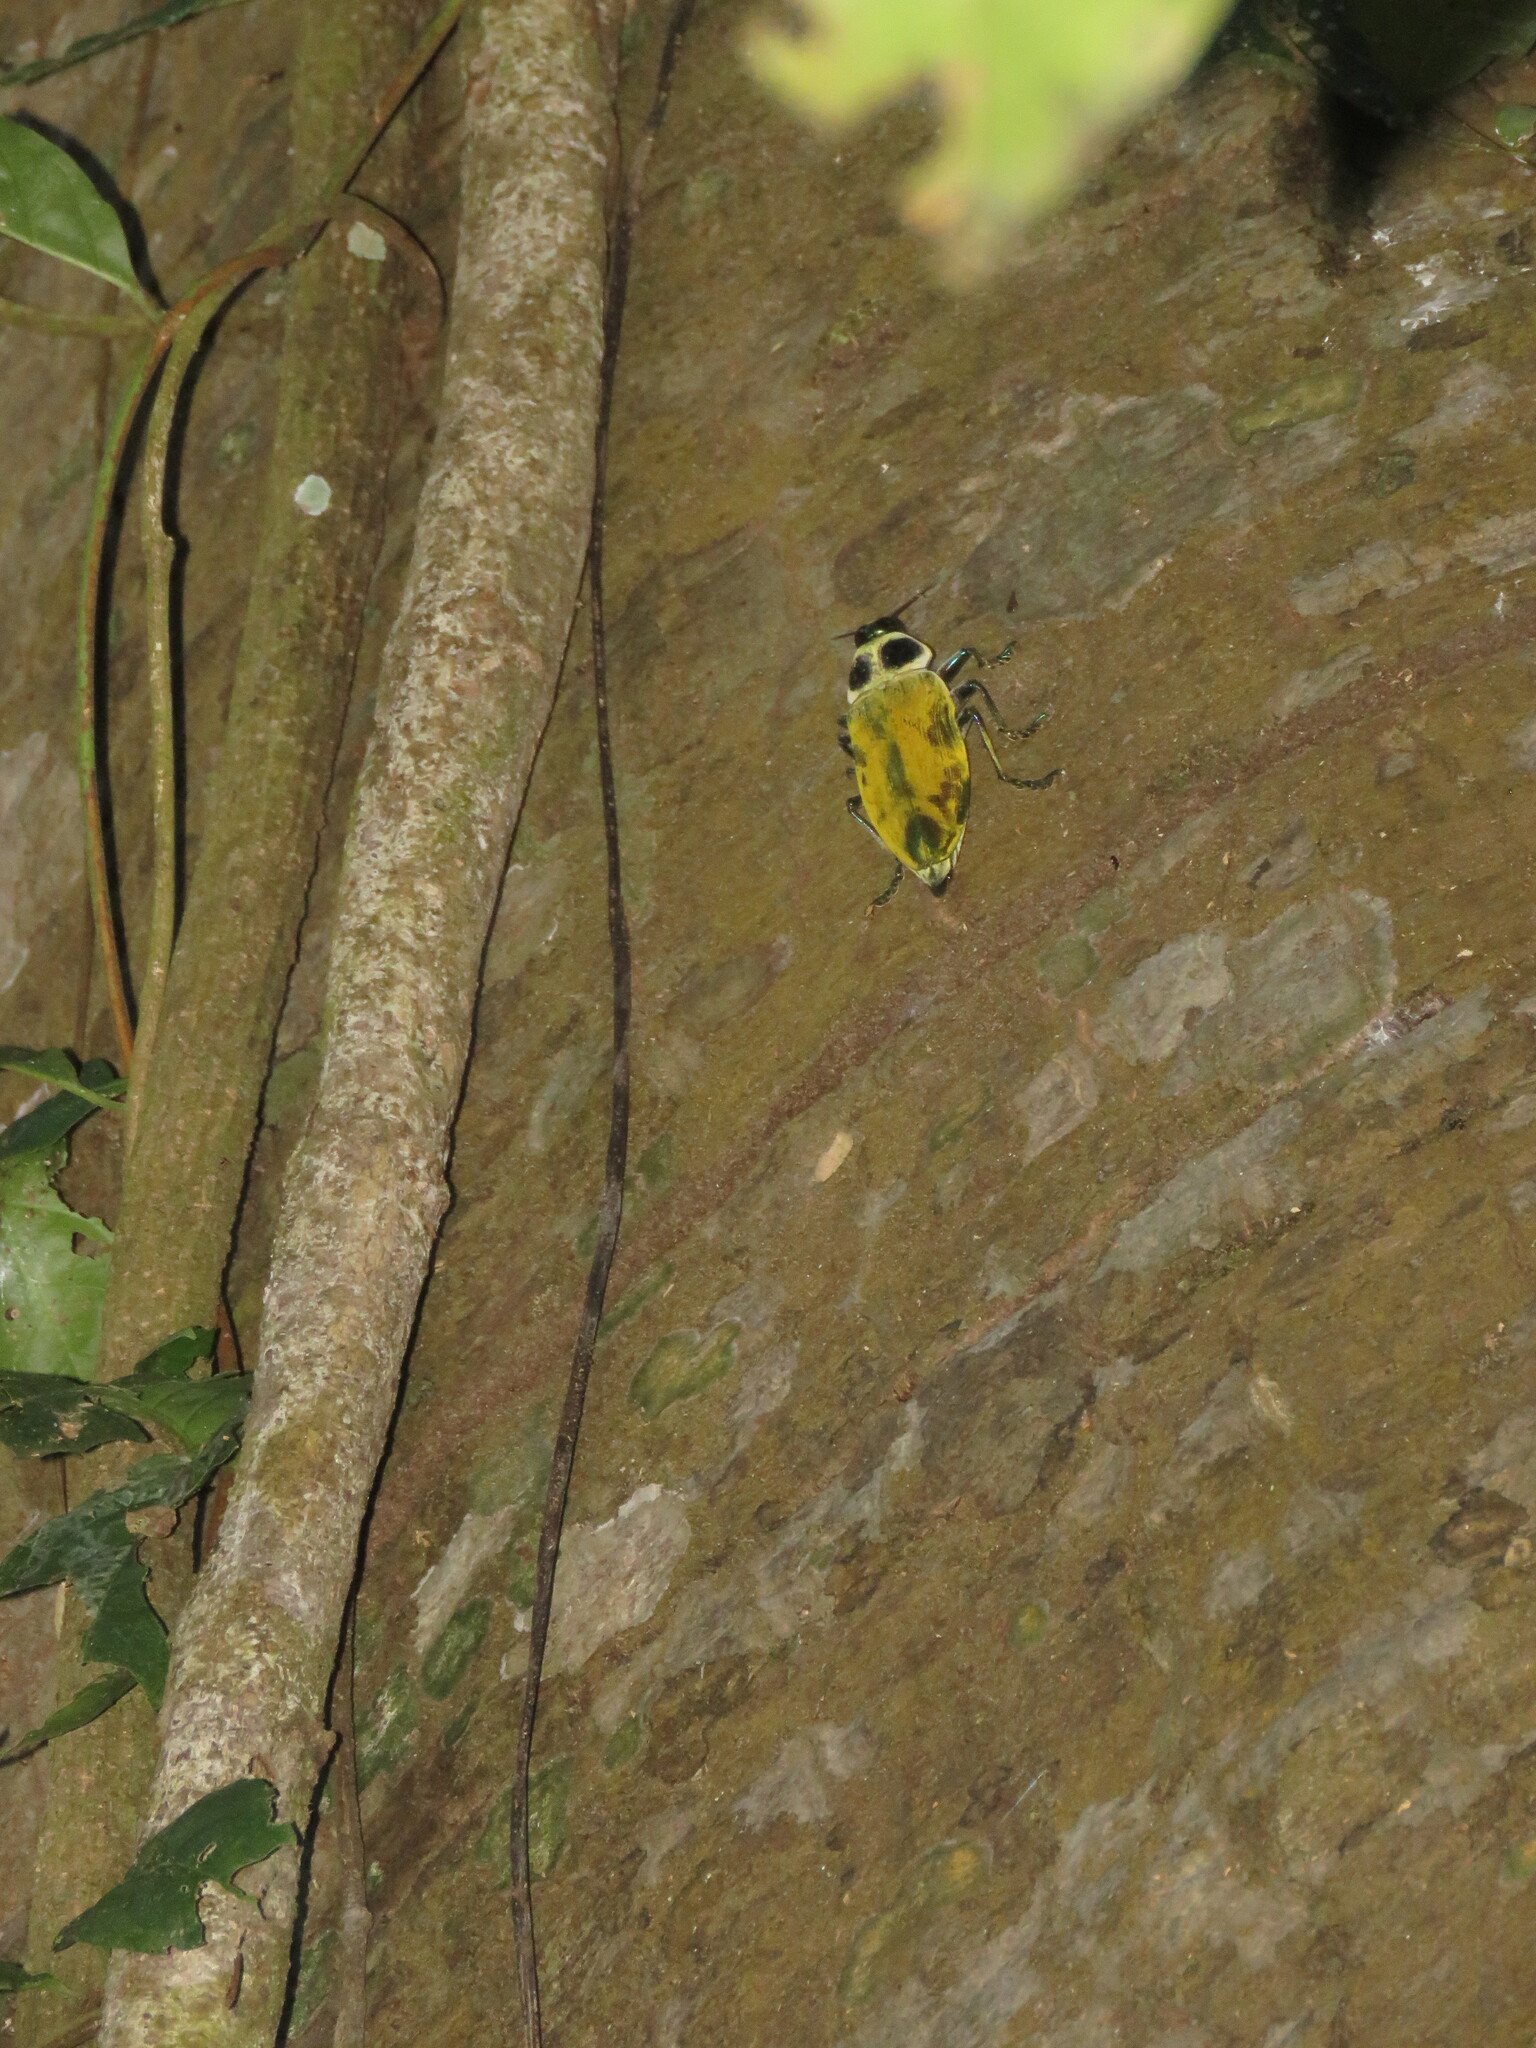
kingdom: Animalia
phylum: Arthropoda
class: Insecta
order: Coleoptera
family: Buprestidae
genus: Euchroma
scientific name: Euchroma giganteum
